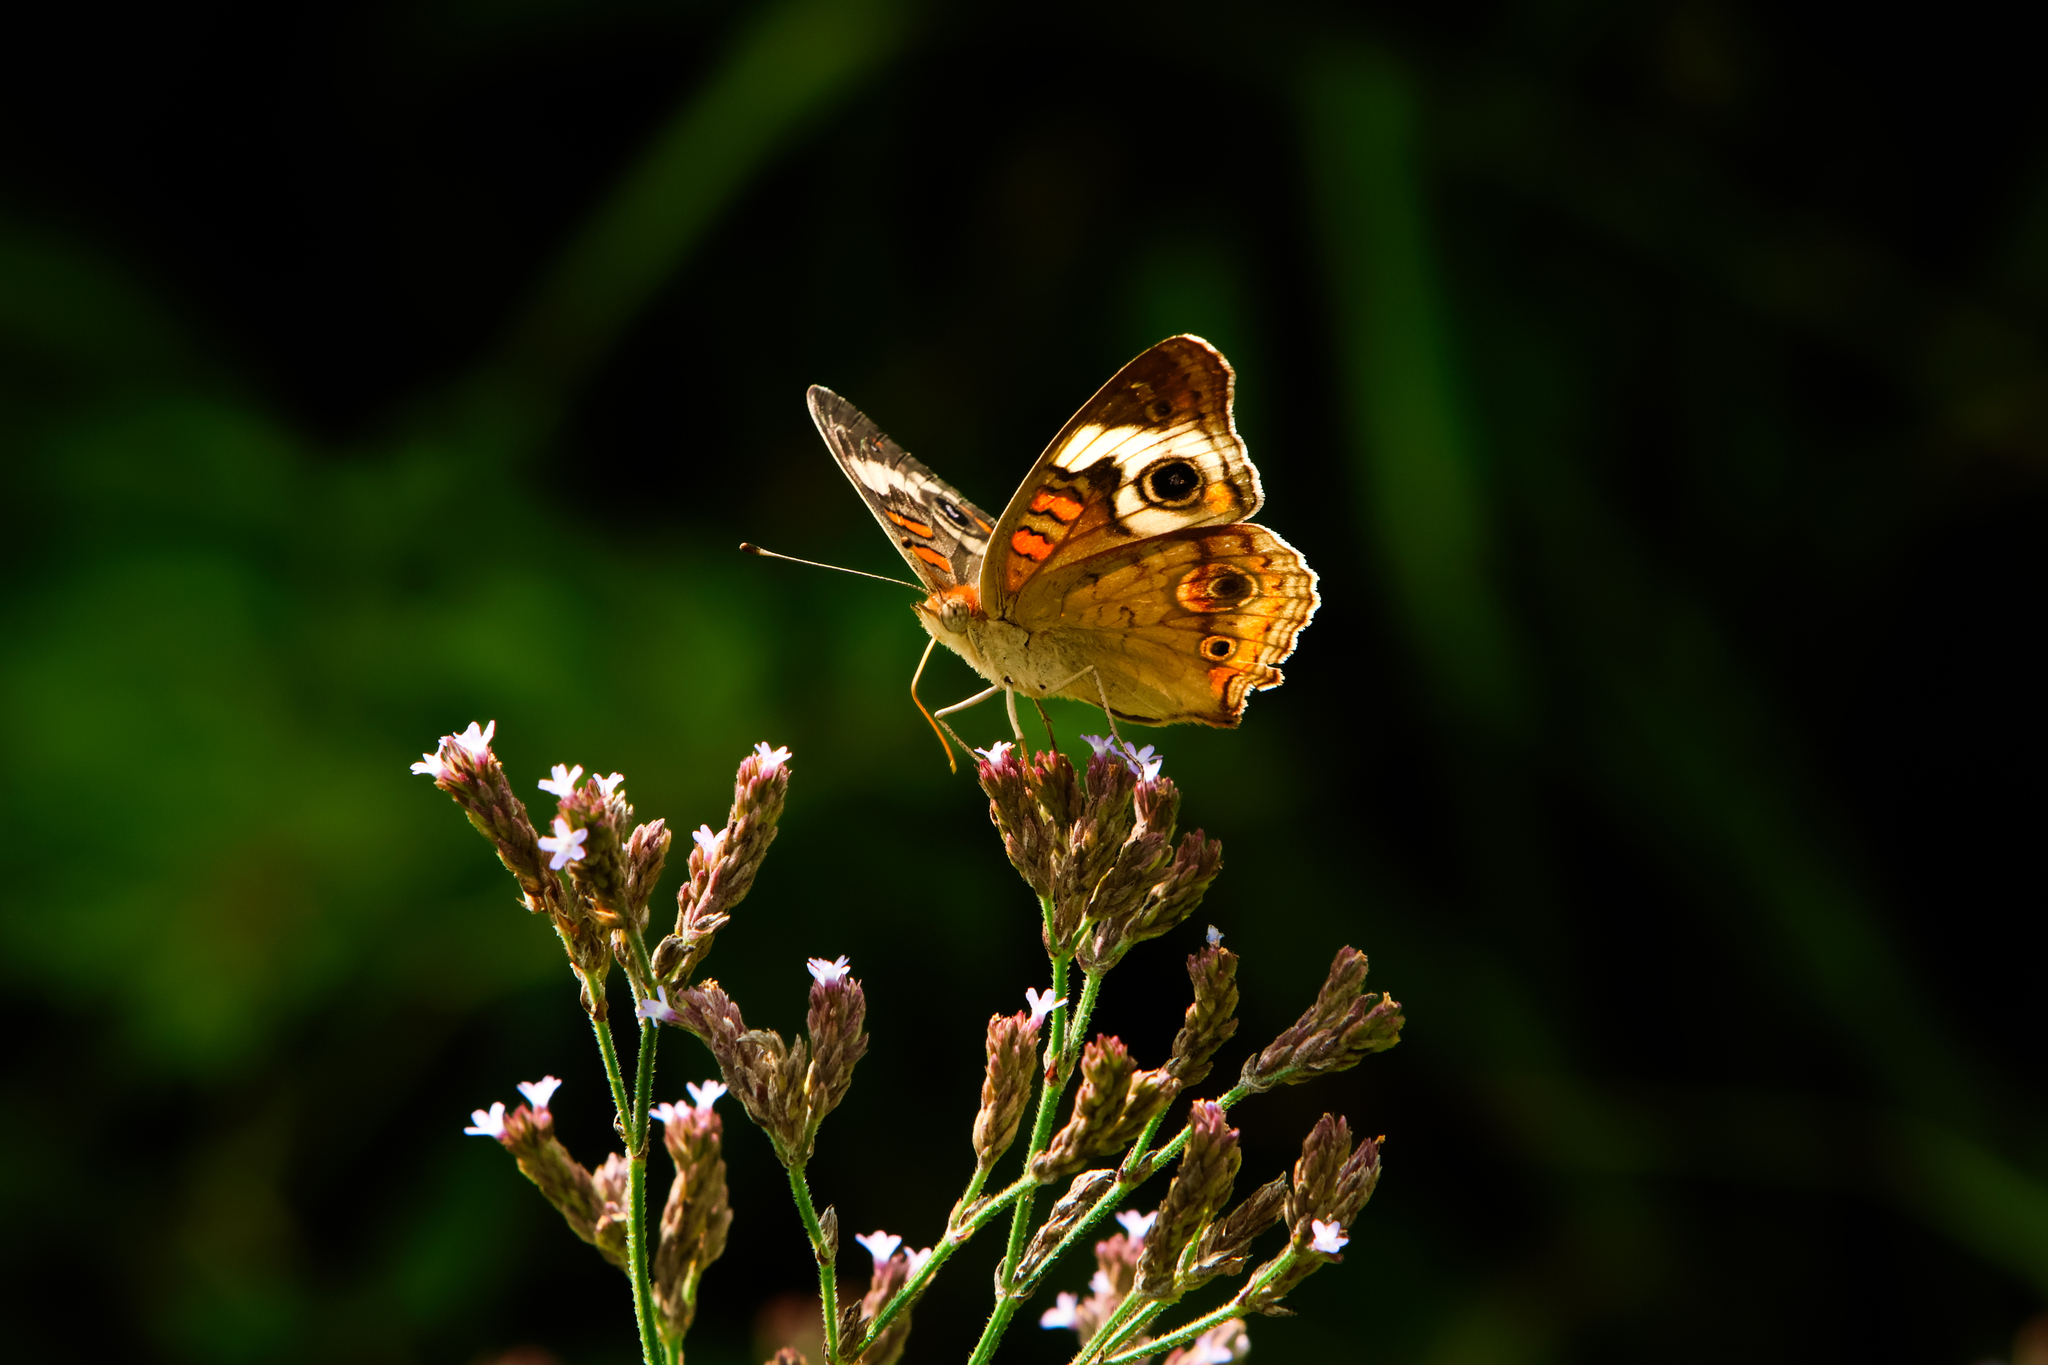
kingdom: Animalia
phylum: Arthropoda
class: Insecta
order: Lepidoptera
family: Nymphalidae
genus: Junonia
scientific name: Junonia coenia
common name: Common buckeye
